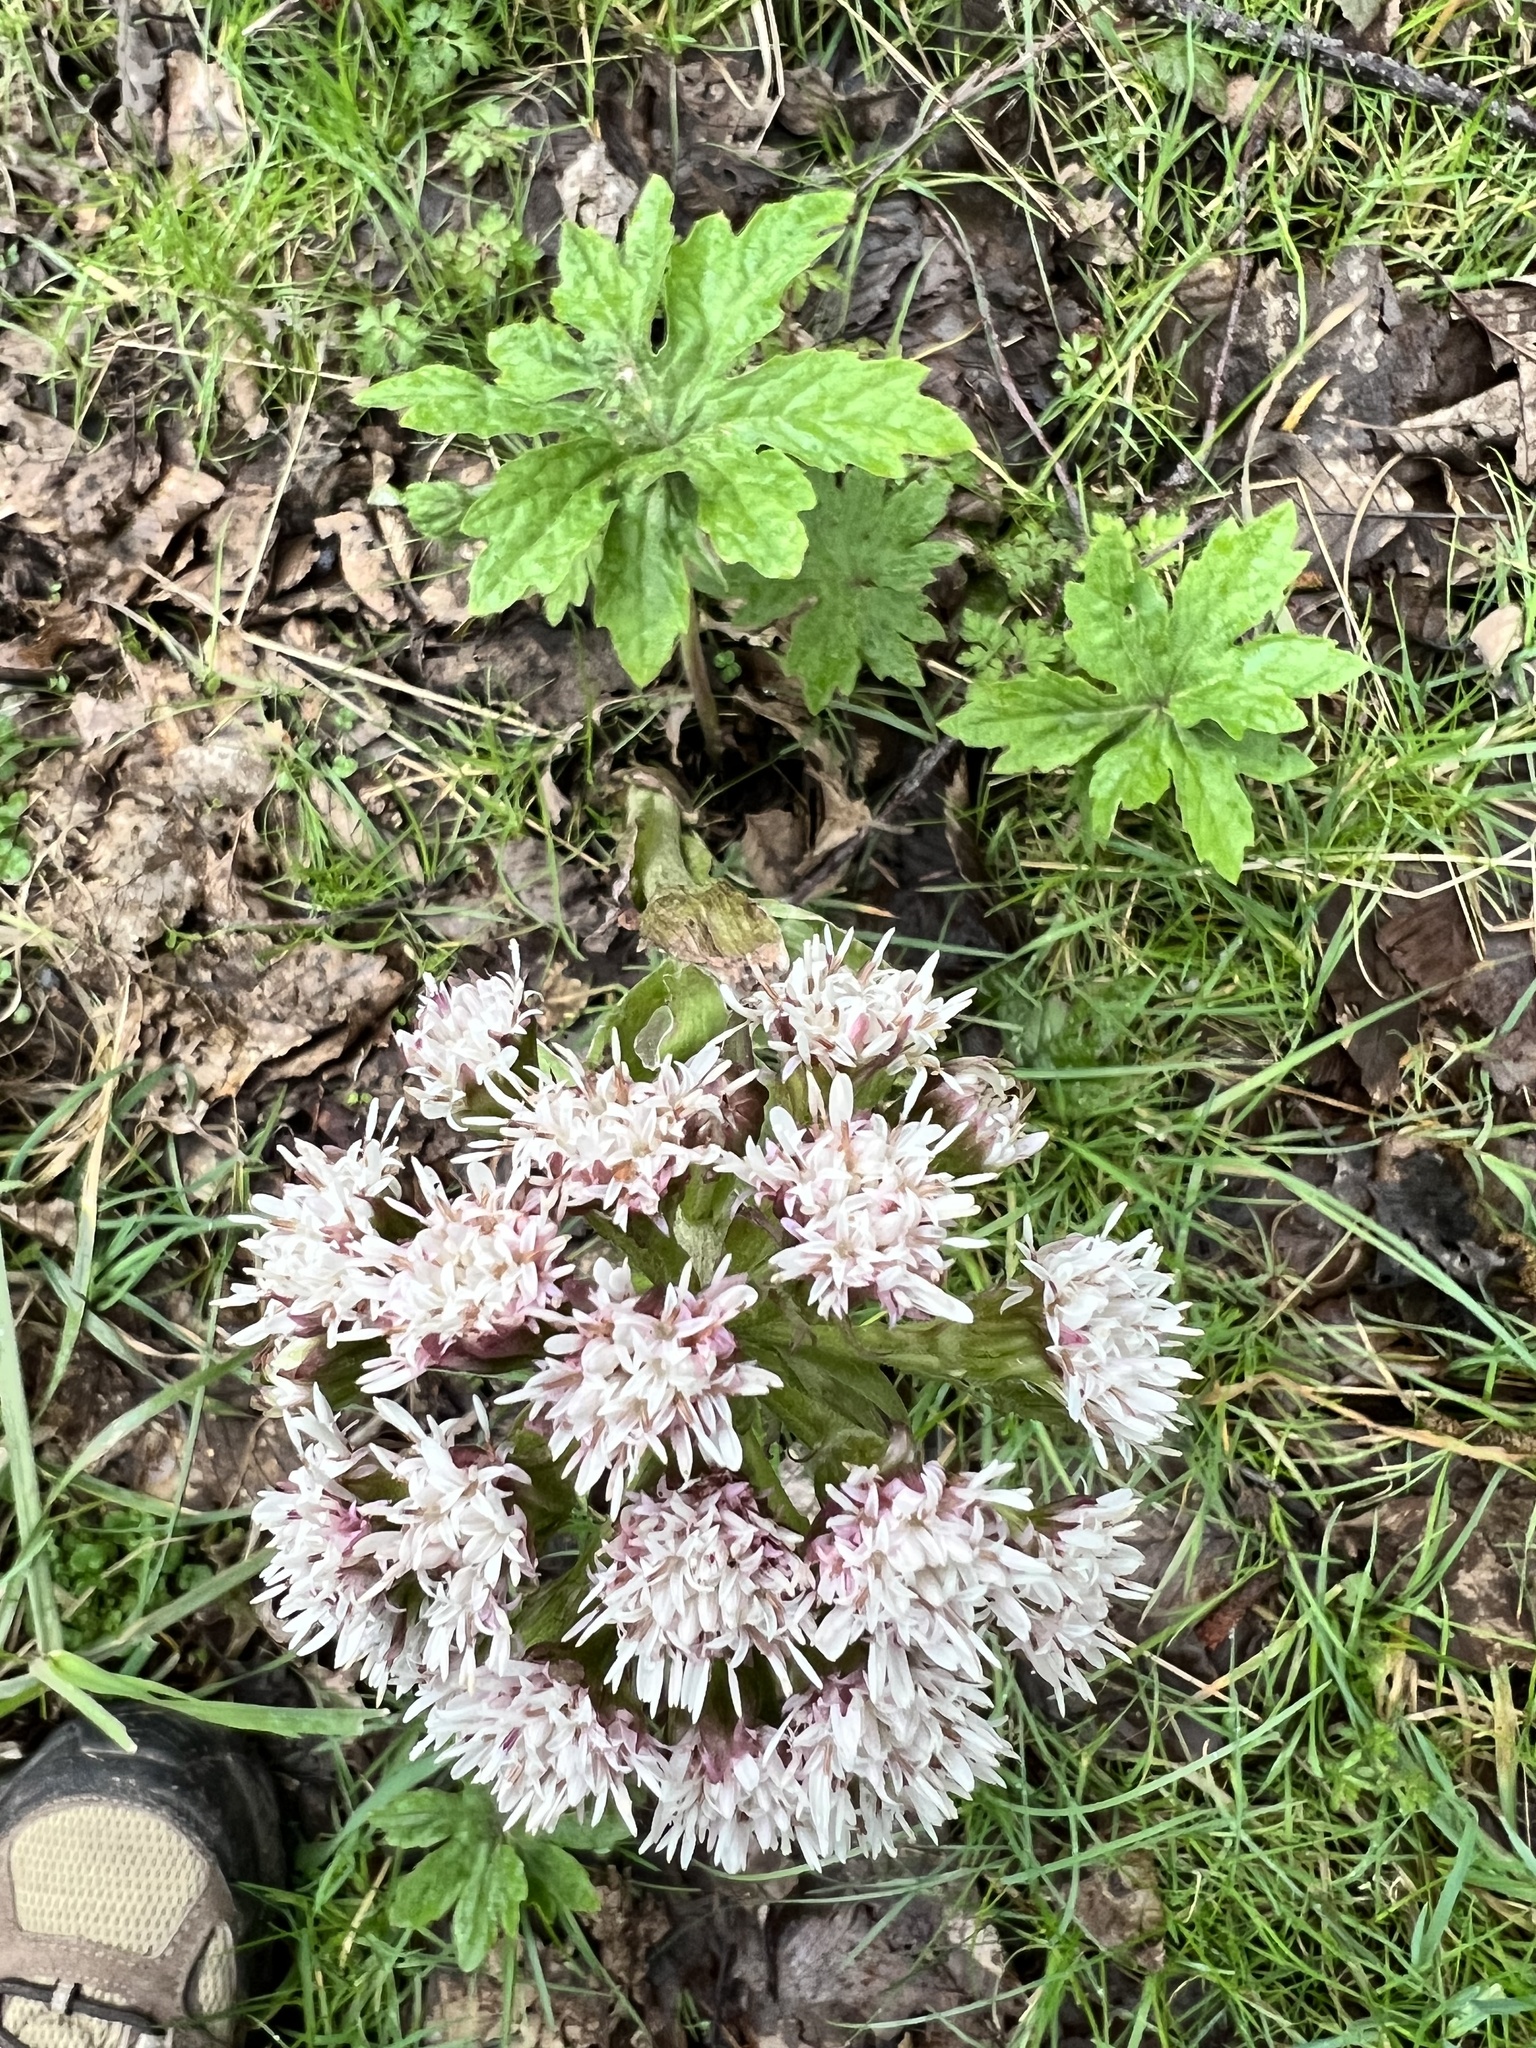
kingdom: Plantae
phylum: Tracheophyta
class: Magnoliopsida
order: Asterales
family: Asteraceae
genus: Petasites
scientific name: Petasites frigidus
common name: Arctic butterbur
